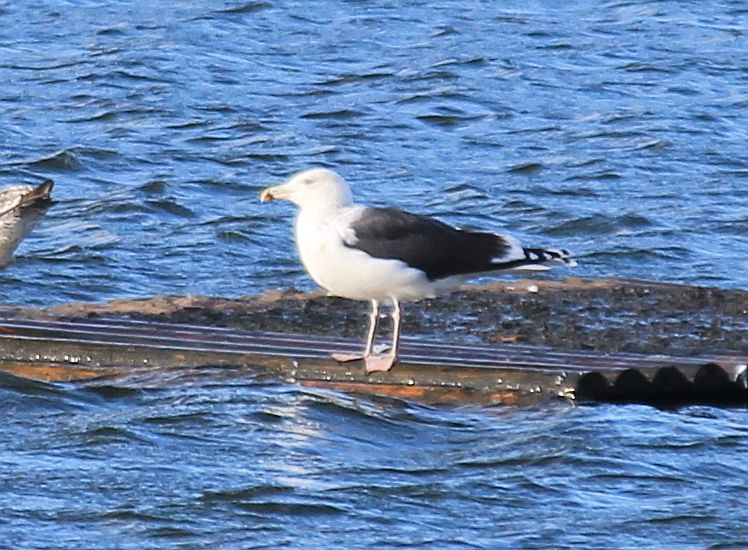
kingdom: Animalia
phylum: Chordata
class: Aves
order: Charadriiformes
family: Laridae
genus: Larus
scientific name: Larus marinus
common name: Great black-backed gull
